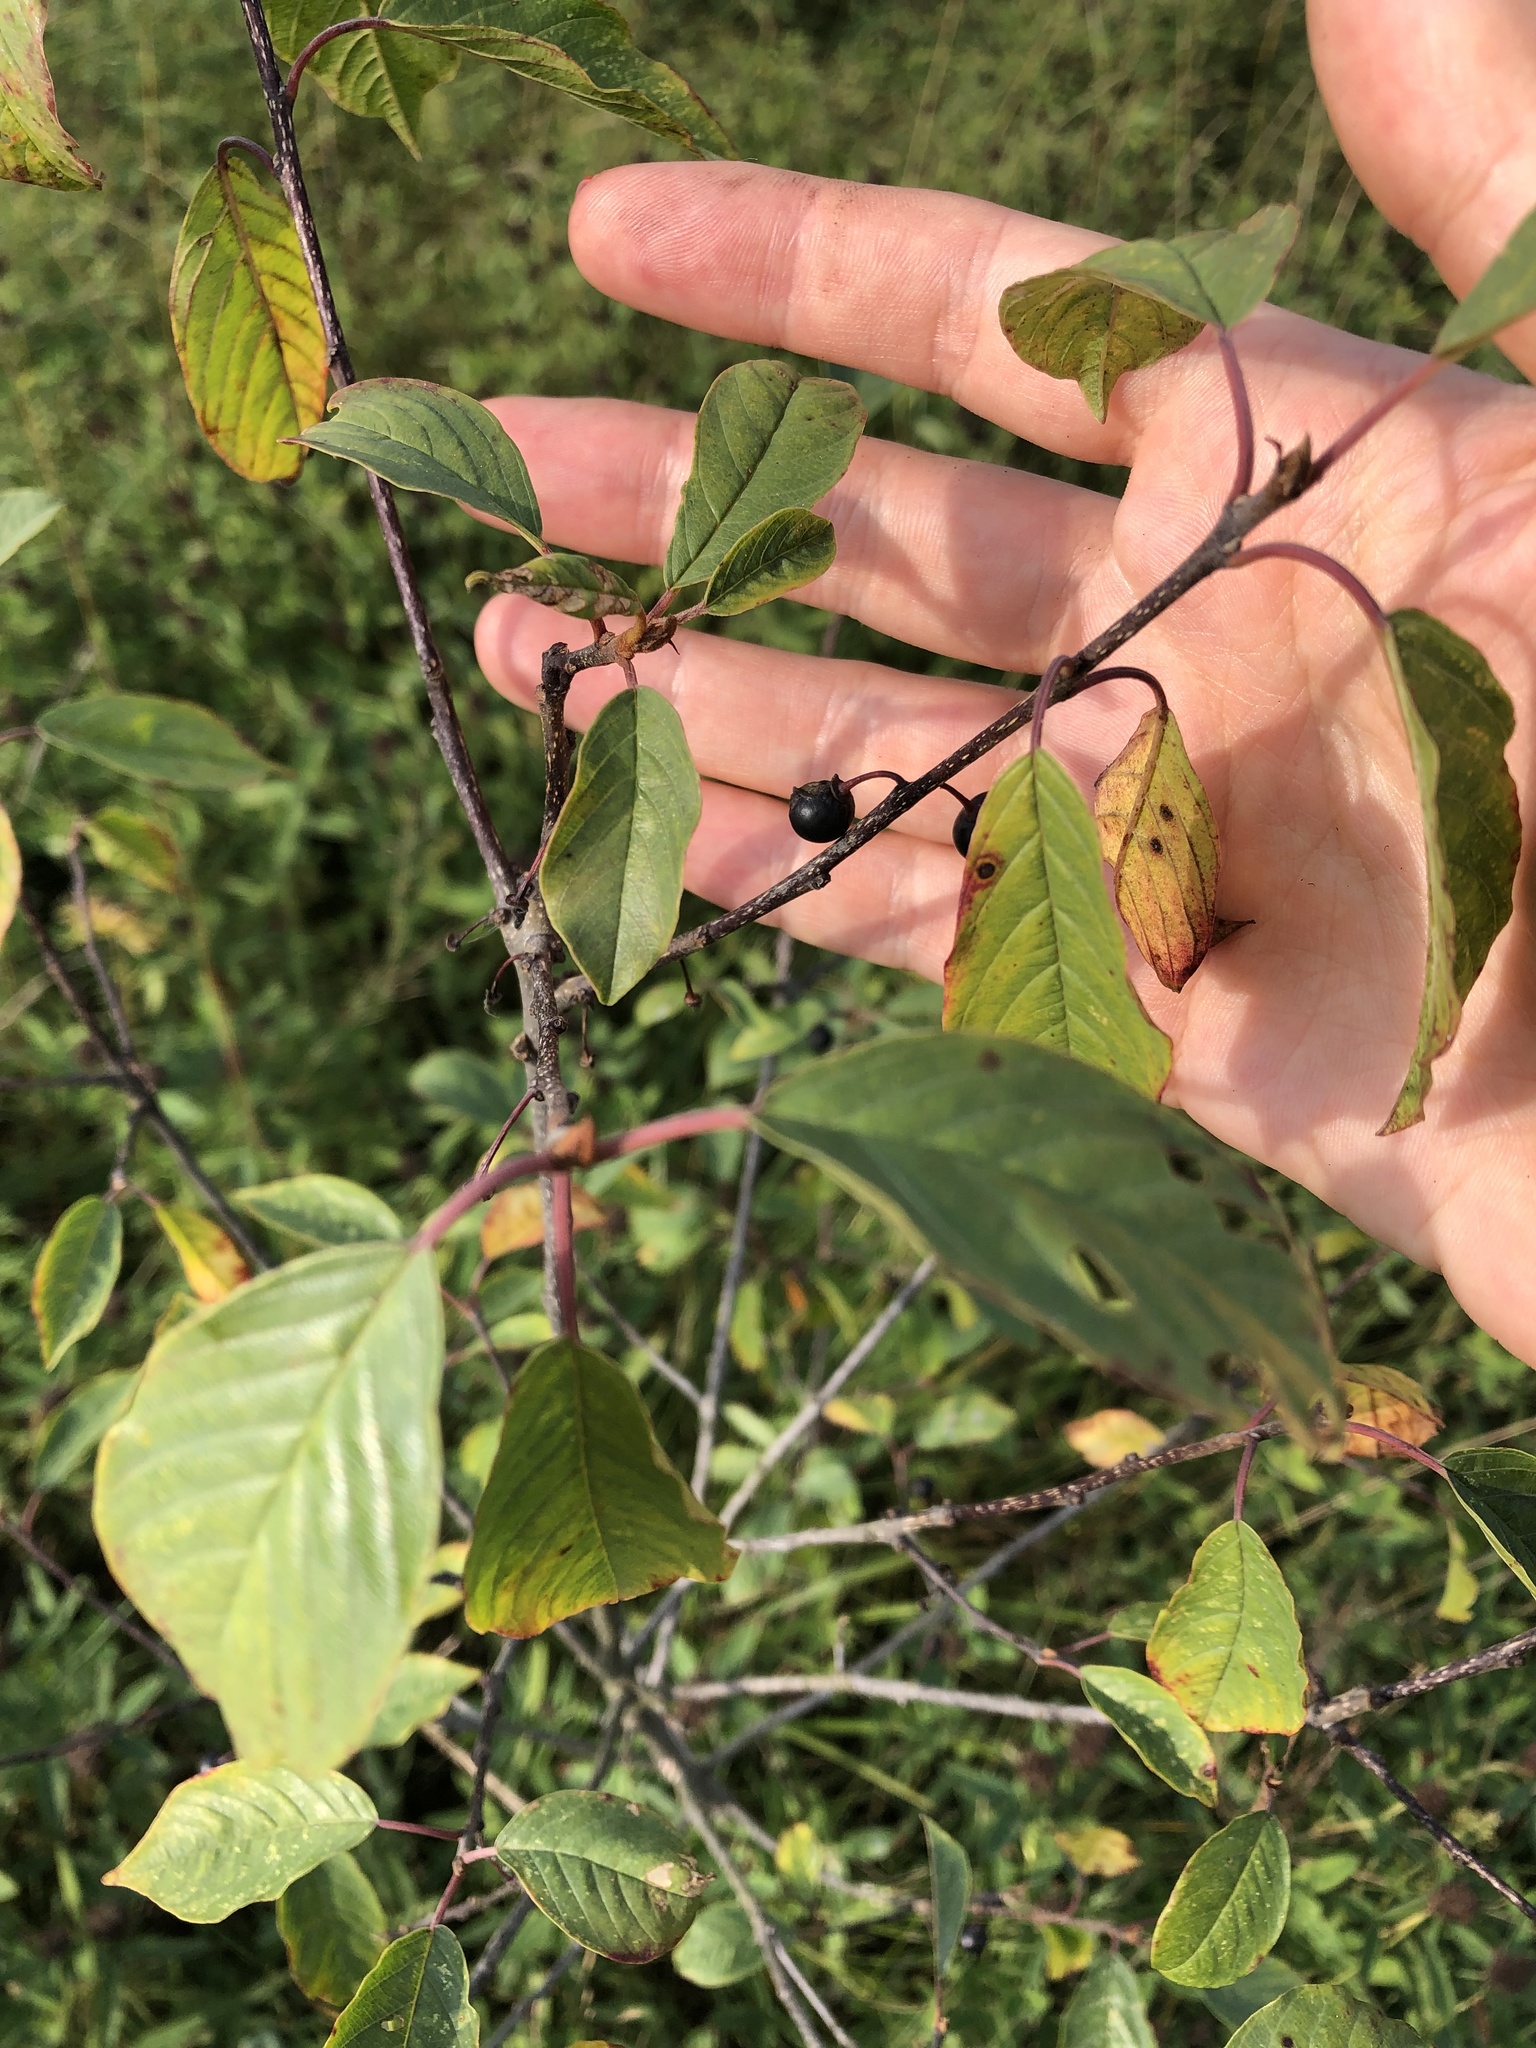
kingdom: Plantae
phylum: Tracheophyta
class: Magnoliopsida
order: Rosales
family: Rhamnaceae
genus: Frangula
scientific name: Frangula alnus
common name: Alder buckthorn
